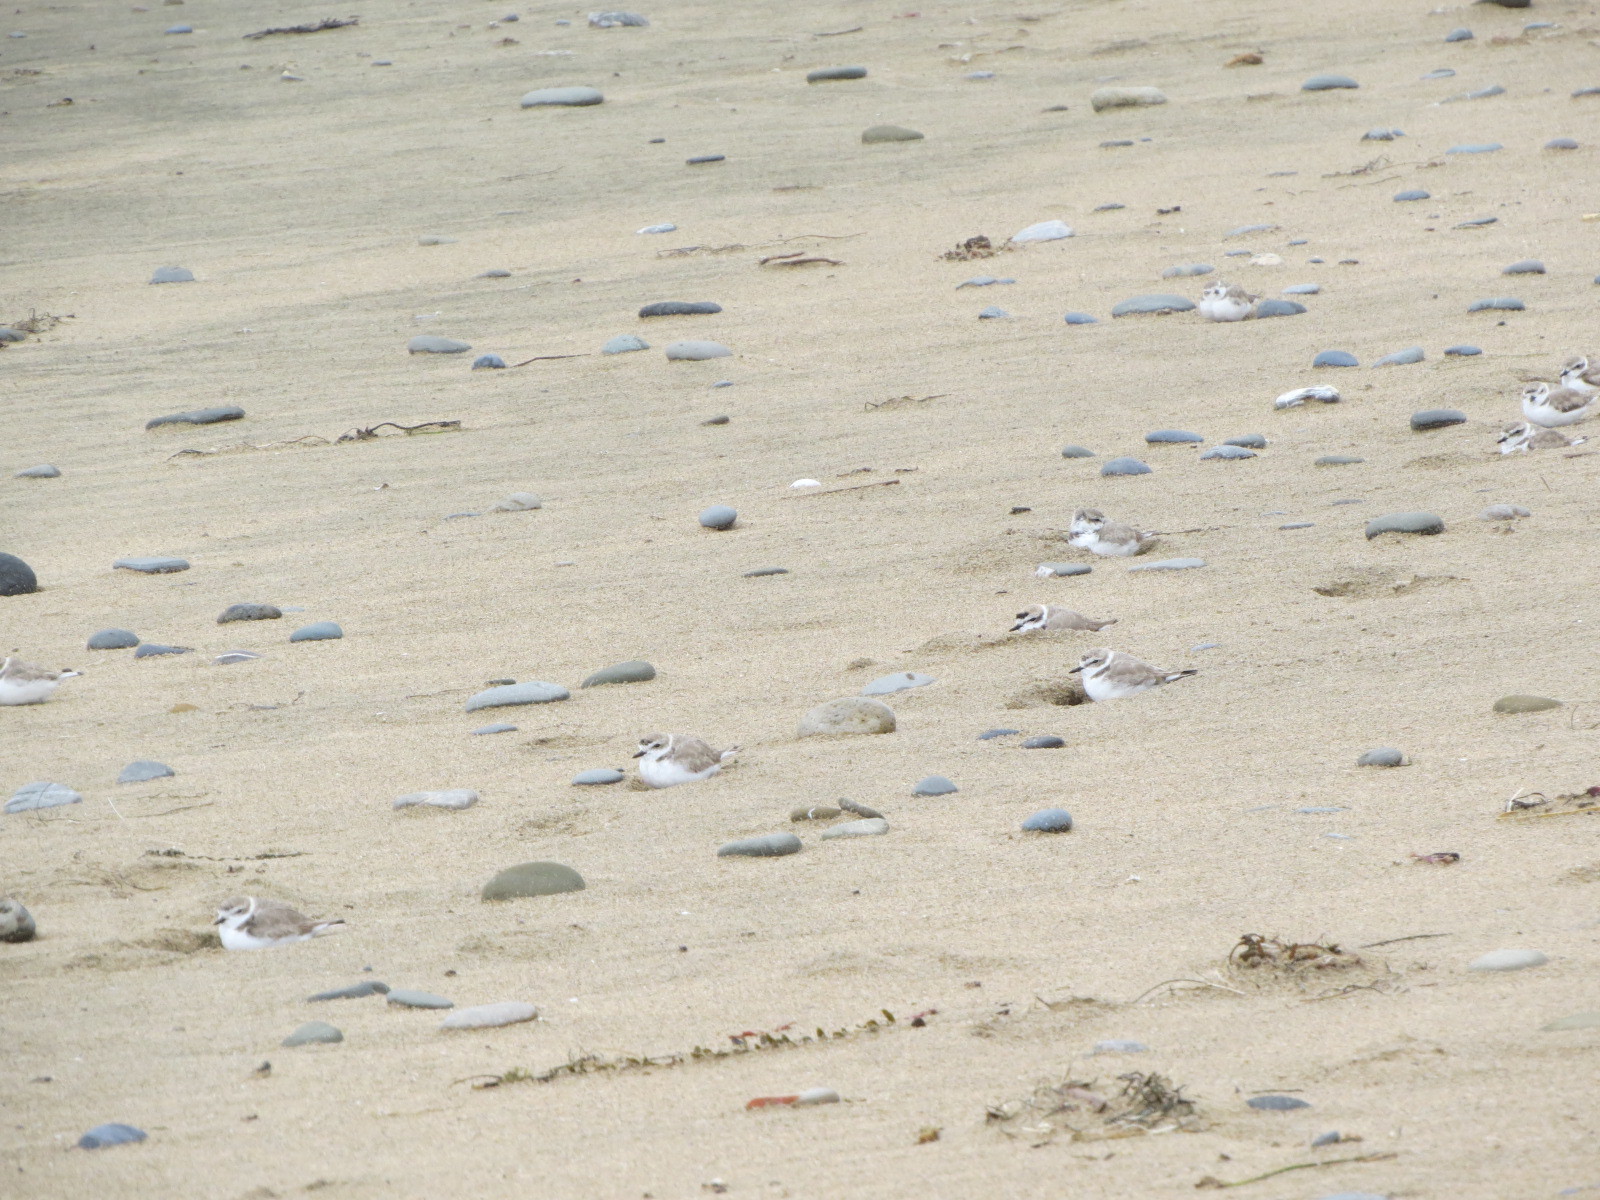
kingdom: Animalia
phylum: Chordata
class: Aves
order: Charadriiformes
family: Charadriidae
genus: Anarhynchus
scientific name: Anarhynchus
